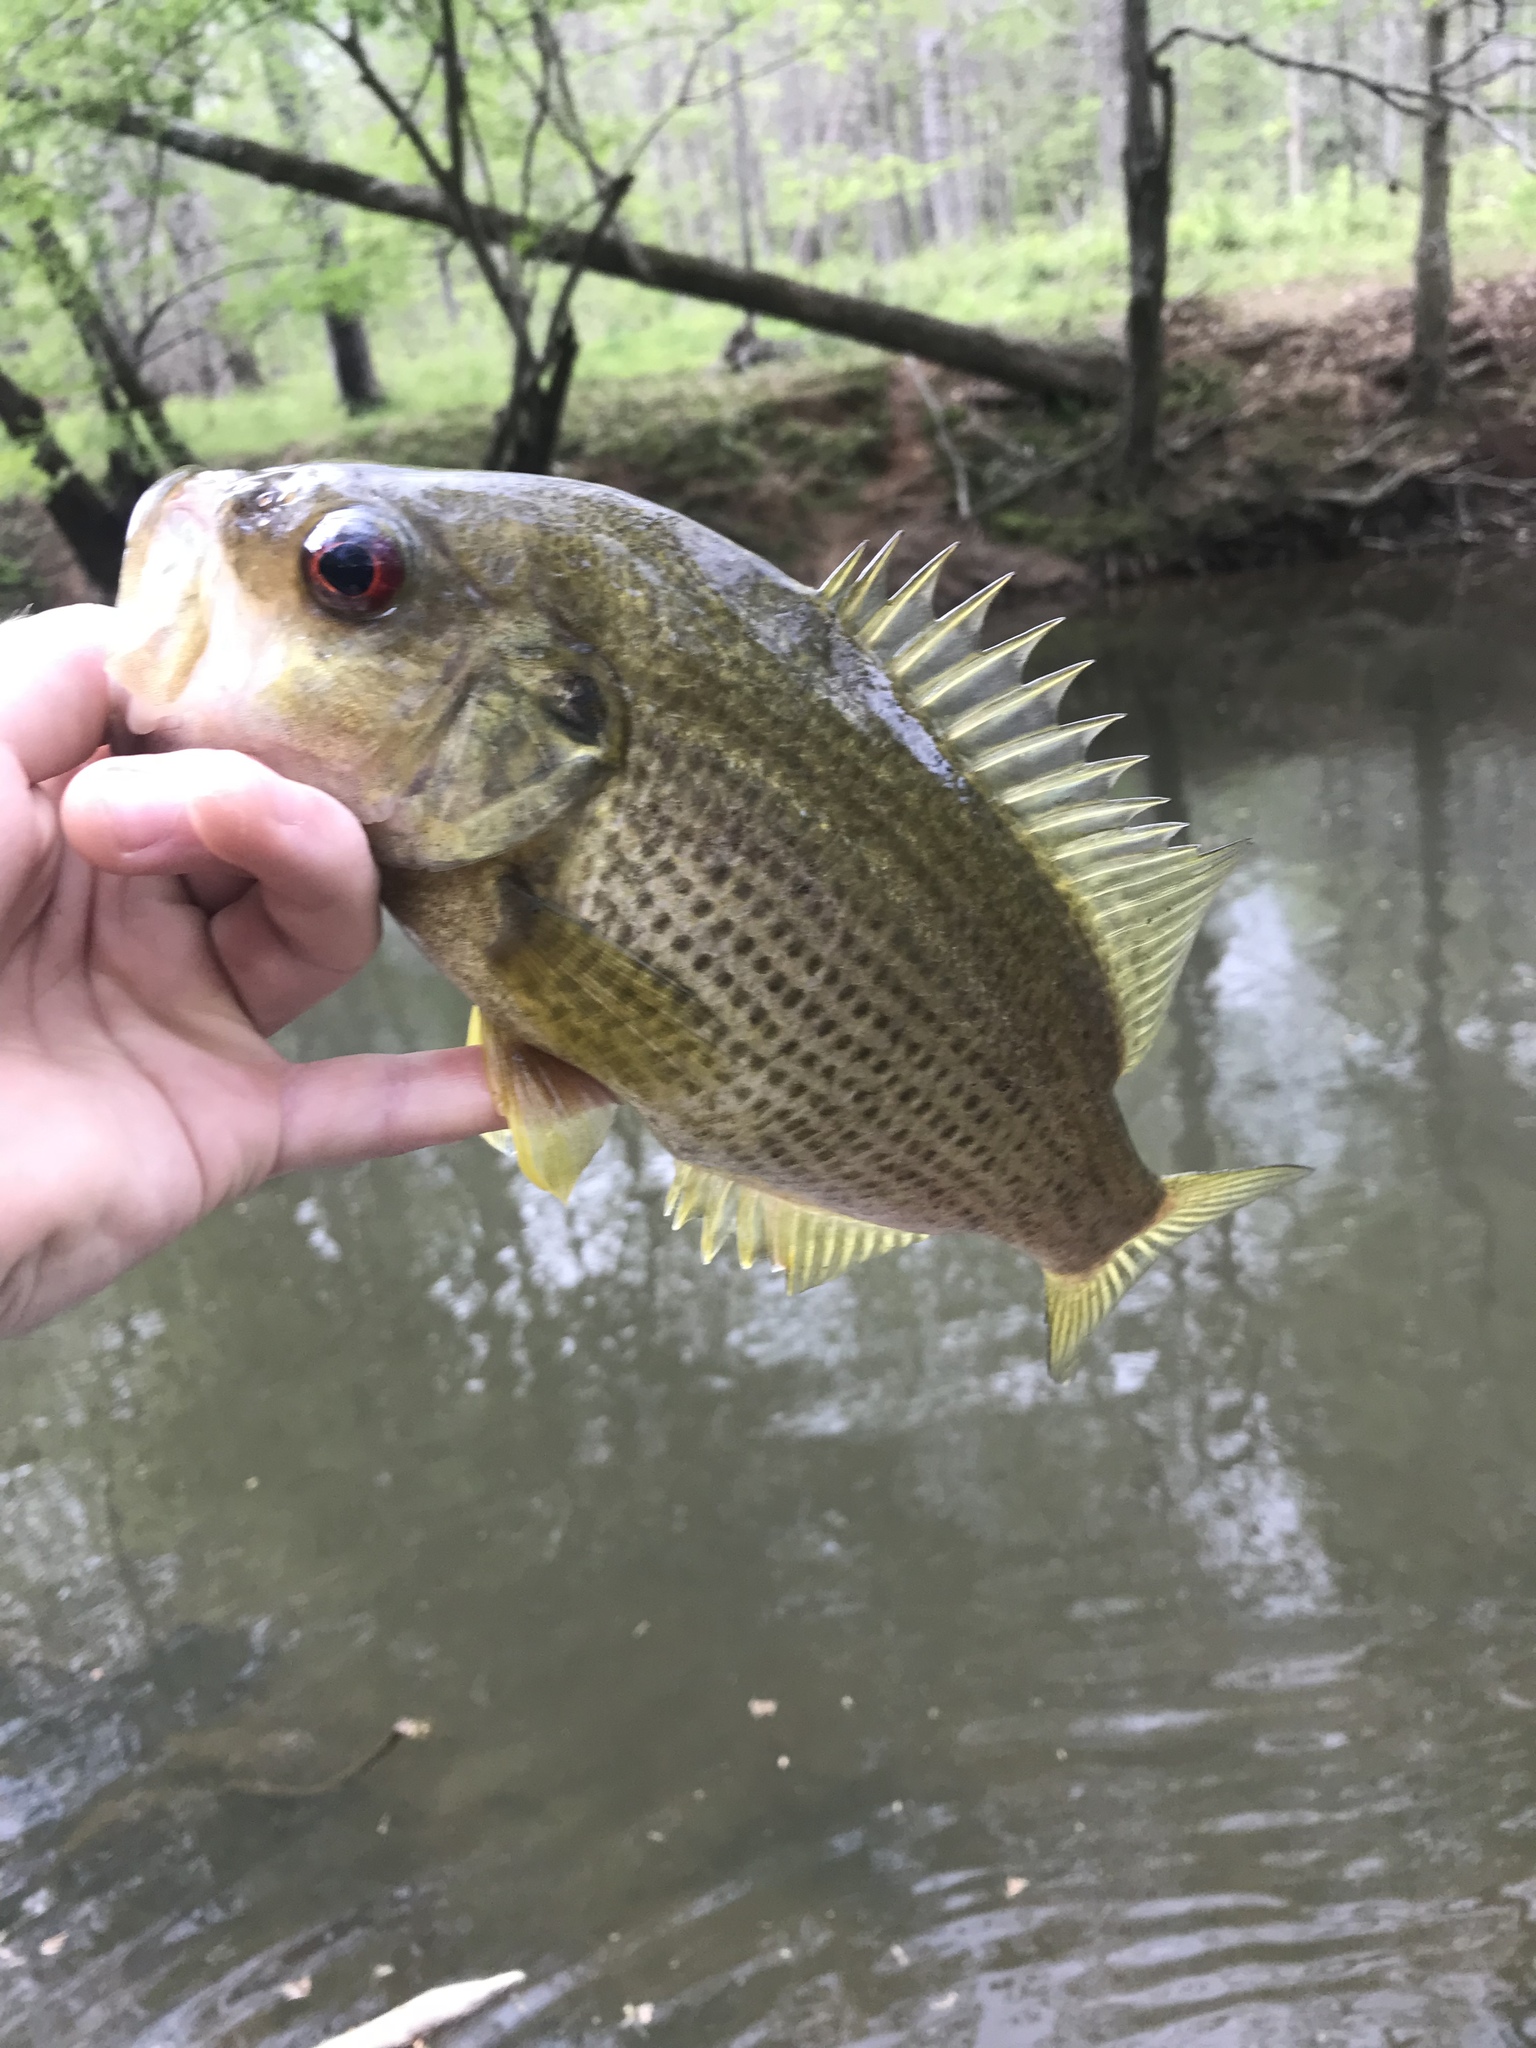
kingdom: Animalia
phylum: Chordata
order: Perciformes
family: Centrarchidae
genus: Ambloplites
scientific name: Ambloplites cavifrons
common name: Roanoke bass
